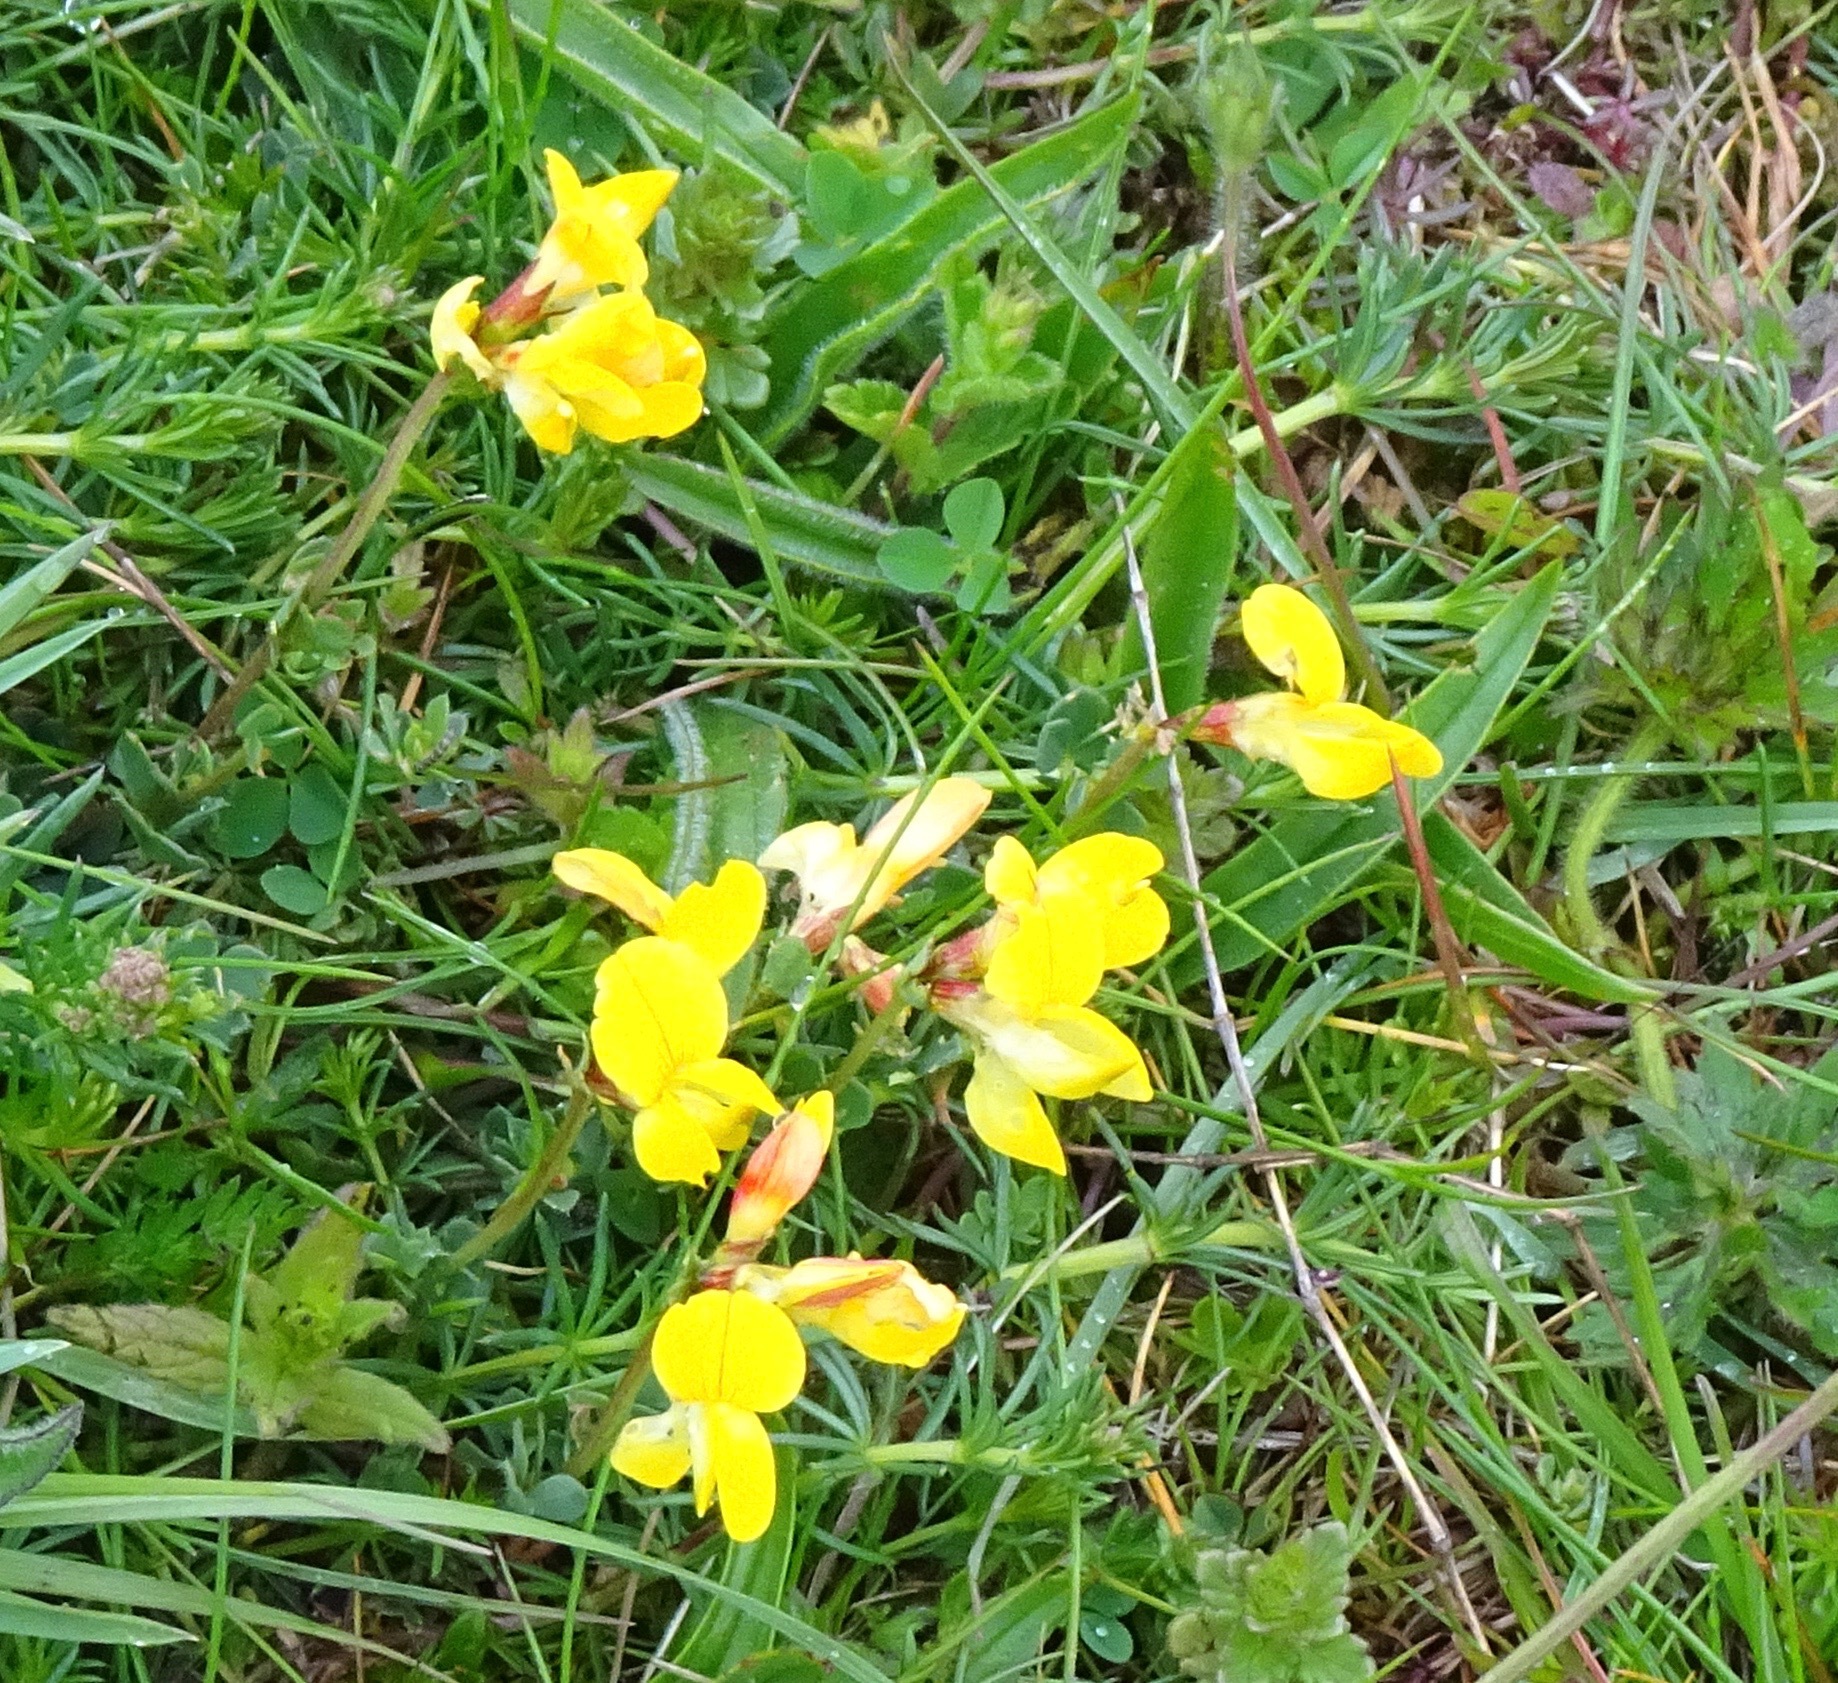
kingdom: Plantae
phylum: Tracheophyta
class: Magnoliopsida
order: Fabales
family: Fabaceae
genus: Lotus
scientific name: Lotus corniculatus
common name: Common bird's-foot-trefoil
